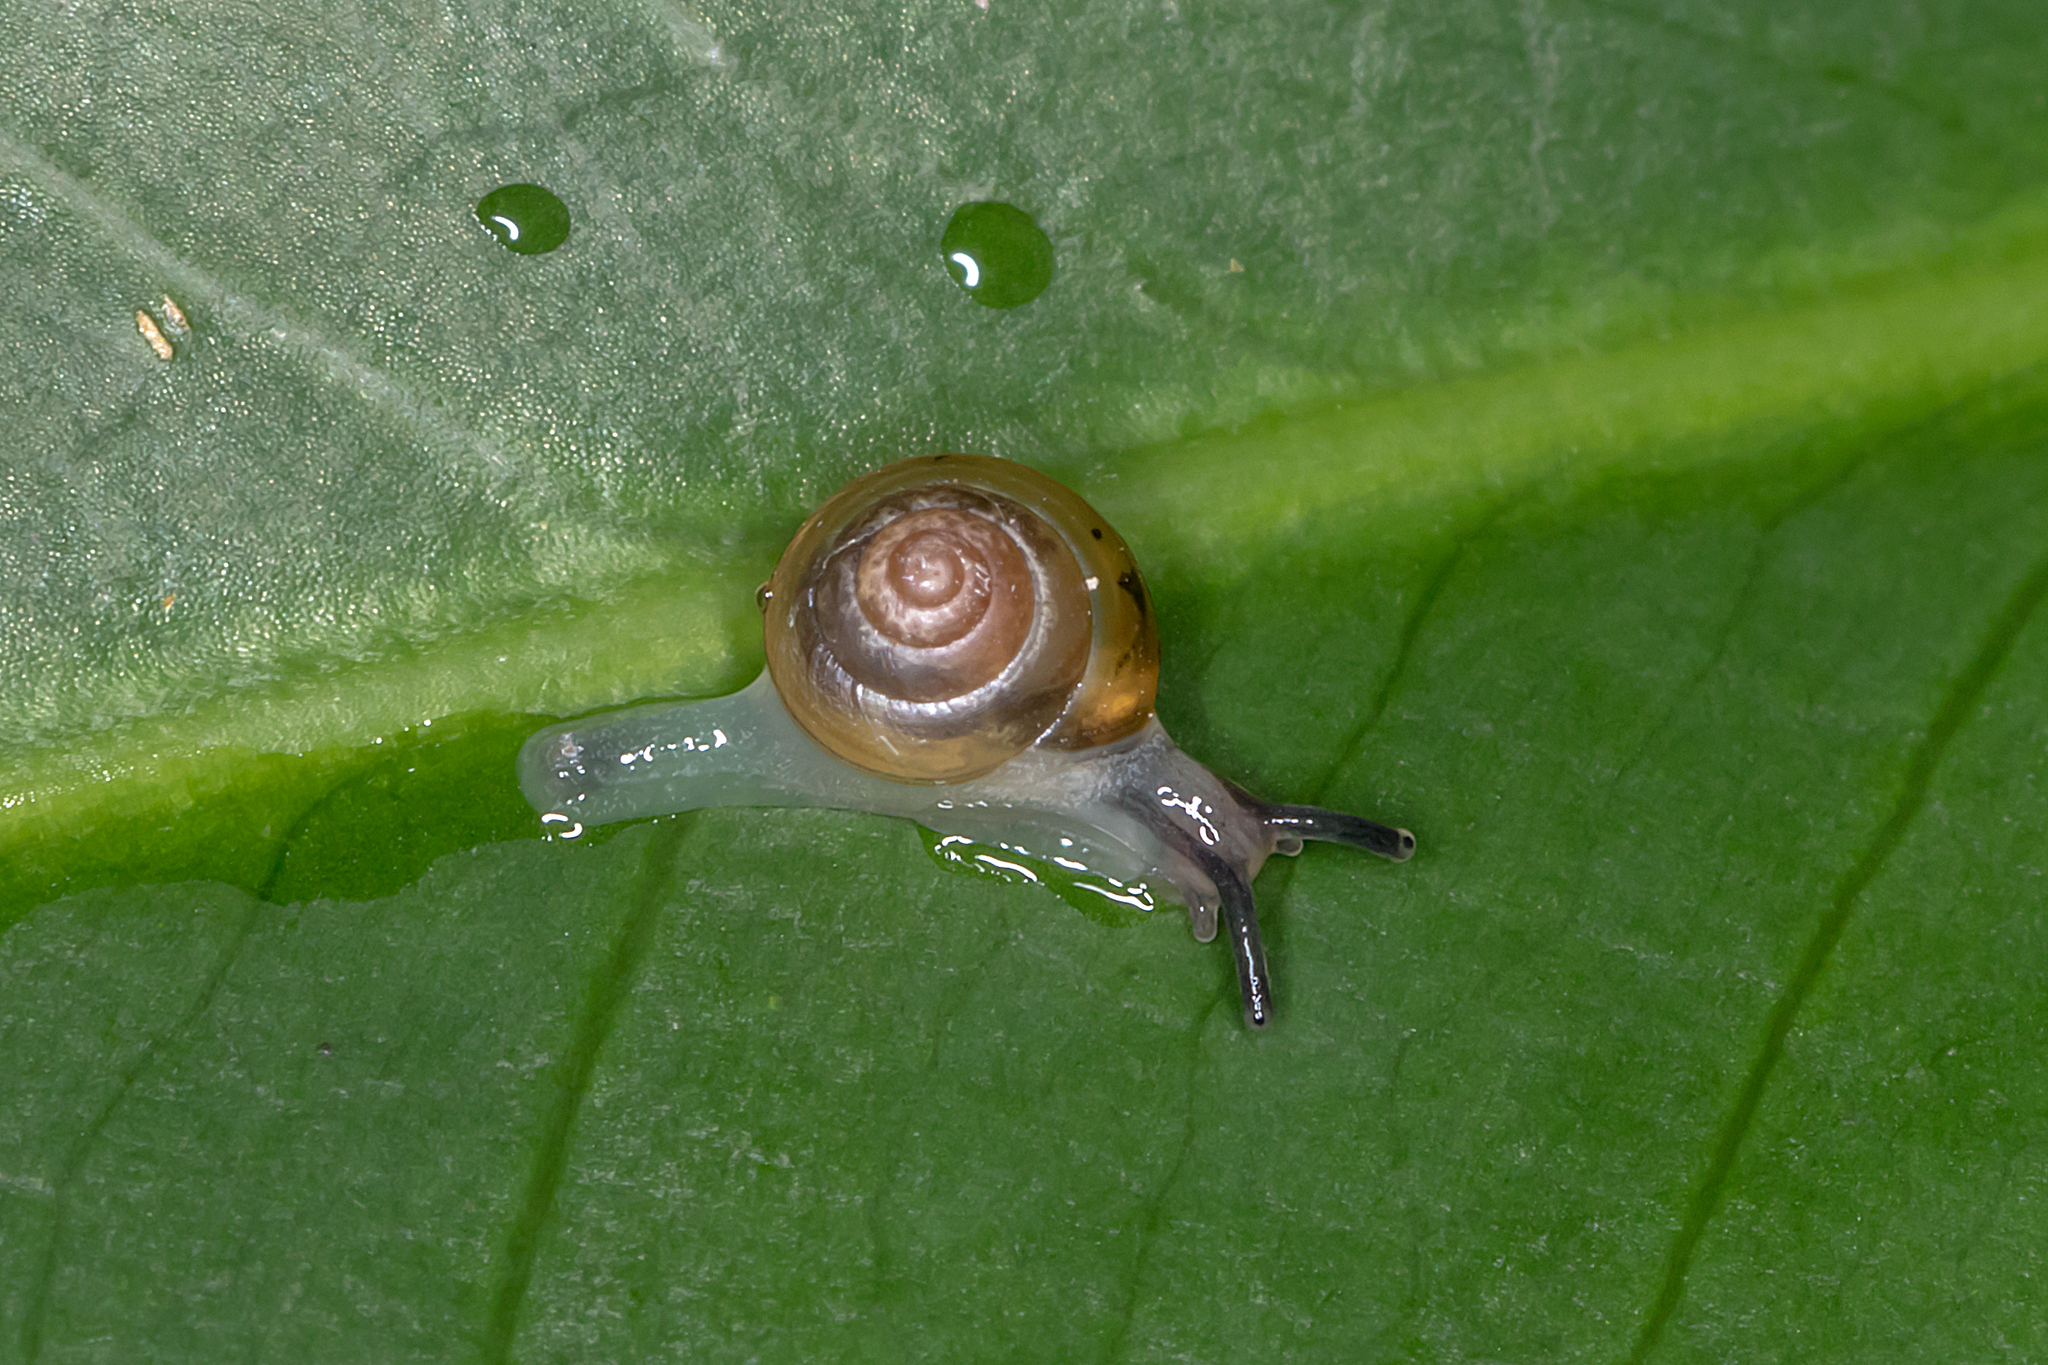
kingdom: Animalia
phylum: Mollusca
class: Gastropoda
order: Stylommatophora
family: Euconulidae
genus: Coneuplecta
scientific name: Coneuplecta calculosa
